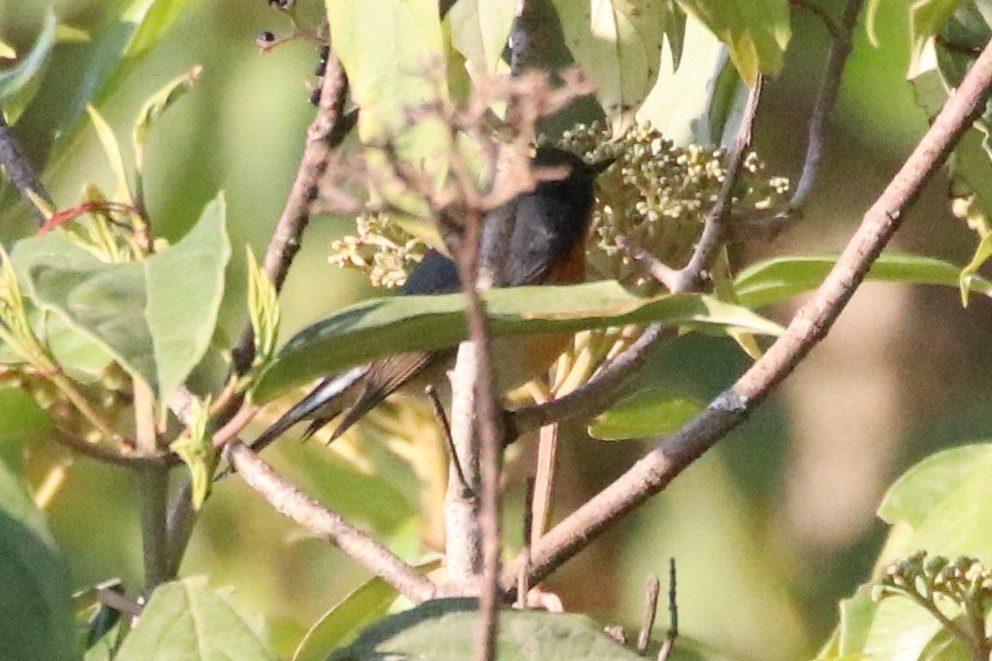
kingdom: Animalia
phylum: Chordata
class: Aves
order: Passeriformes
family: Muscicapidae
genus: Ficedula
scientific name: Ficedula erithacus
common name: Slaty-backed flycatcher
